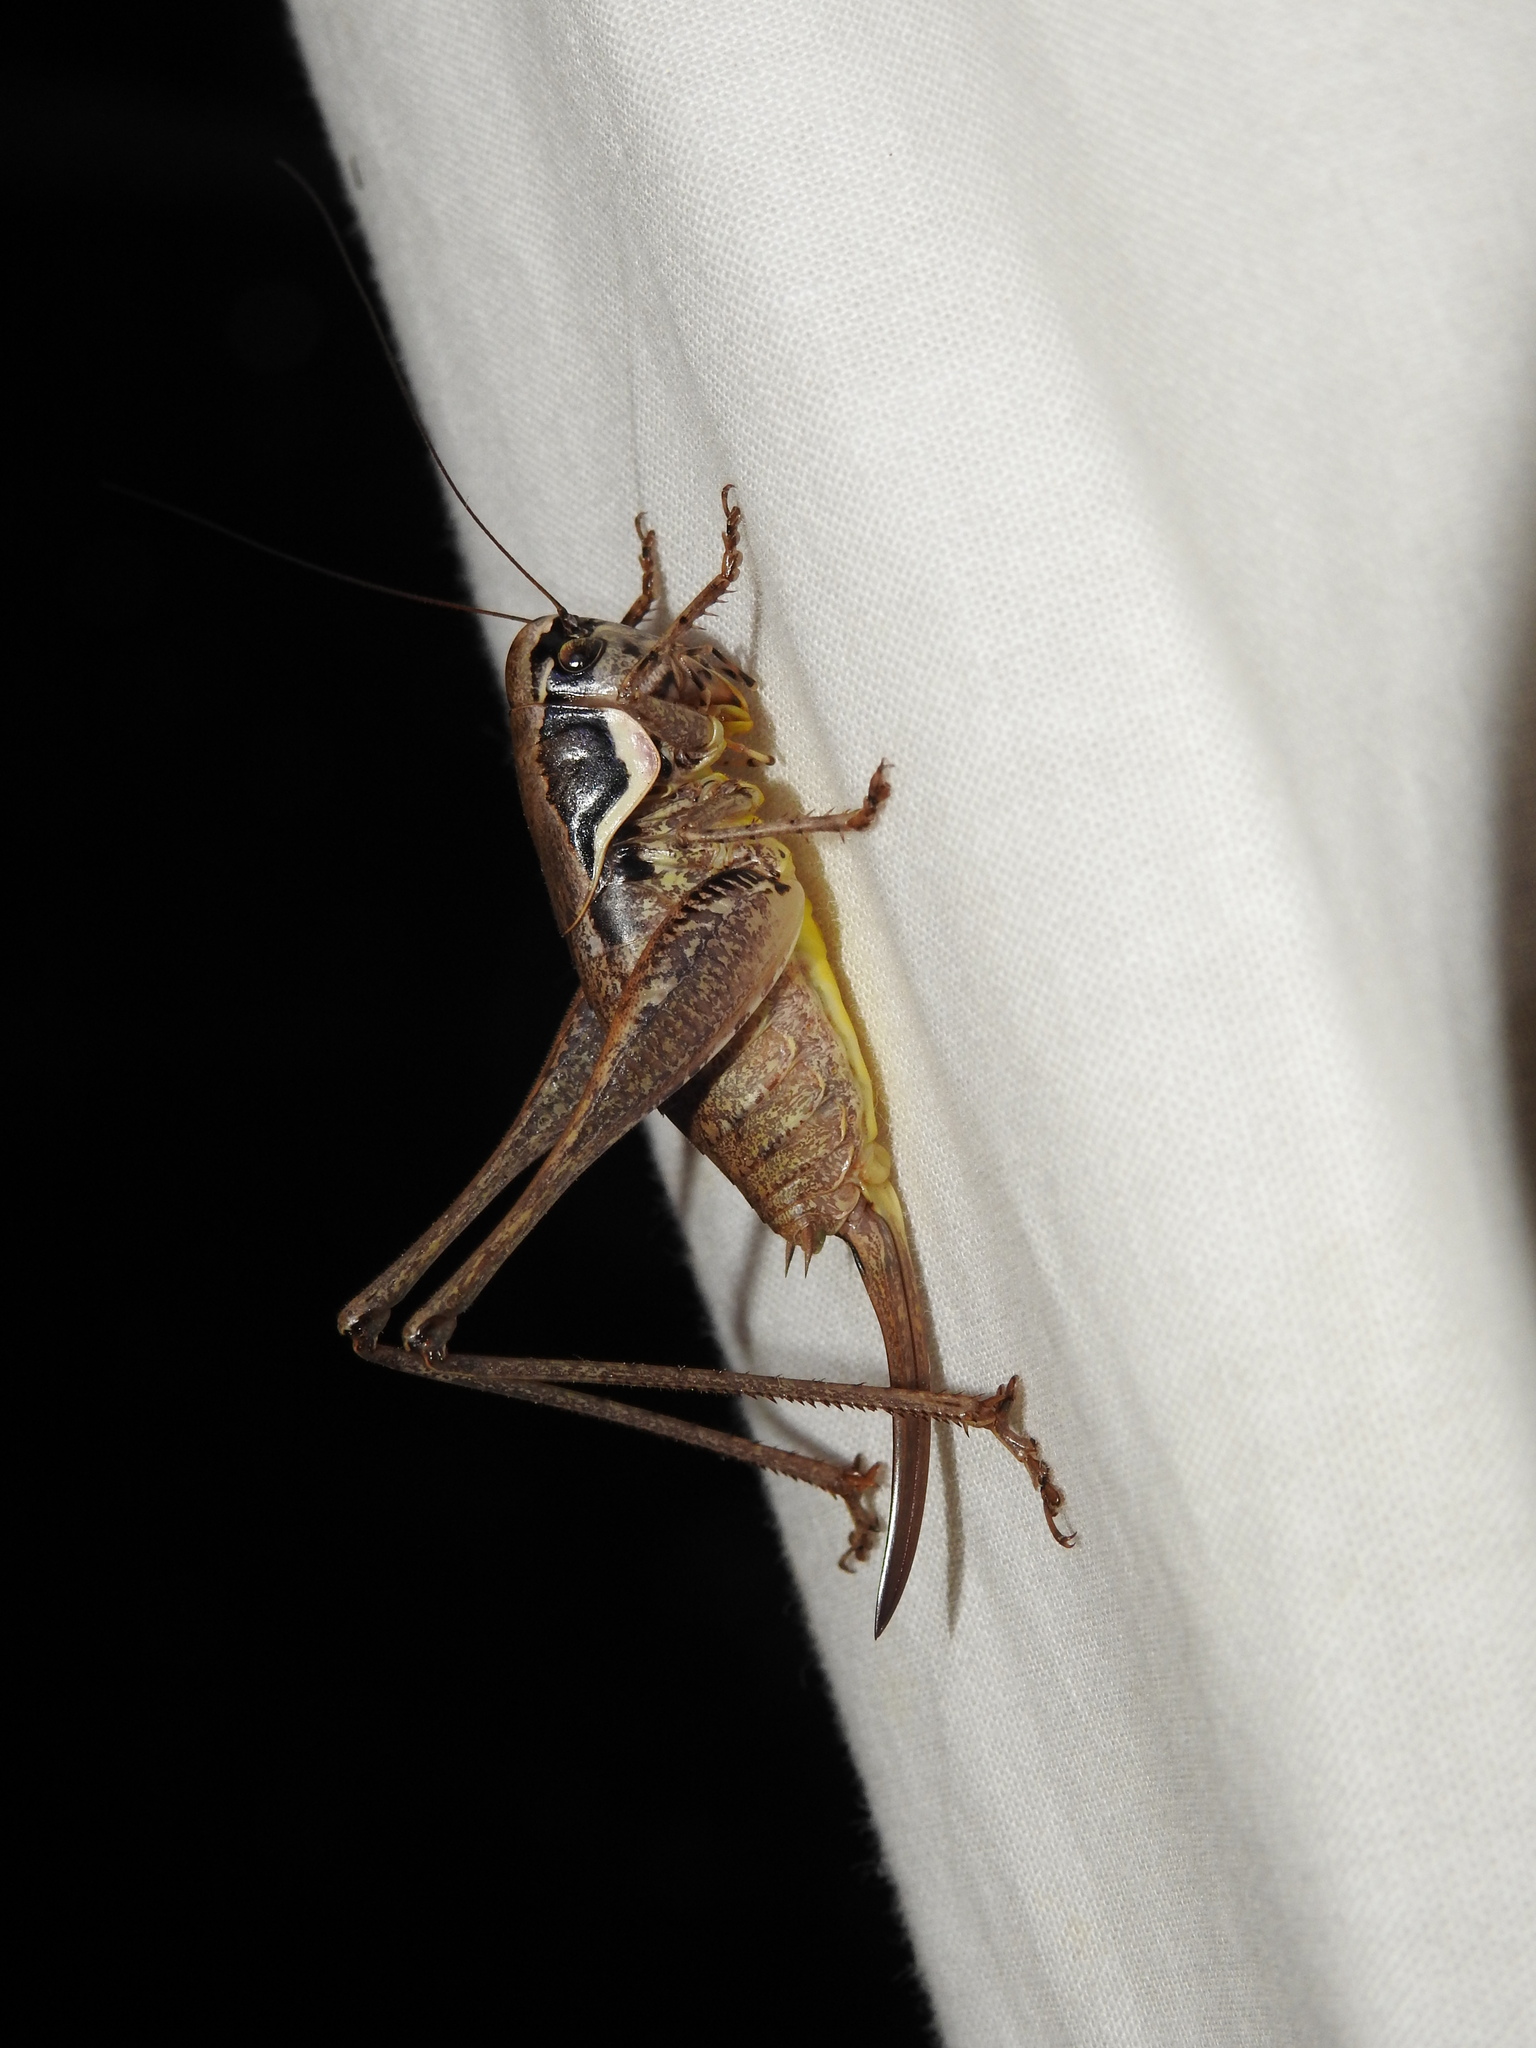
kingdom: Animalia
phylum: Arthropoda
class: Insecta
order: Orthoptera
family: Tettigoniidae
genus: Pholidoptera
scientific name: Pholidoptera femorata
